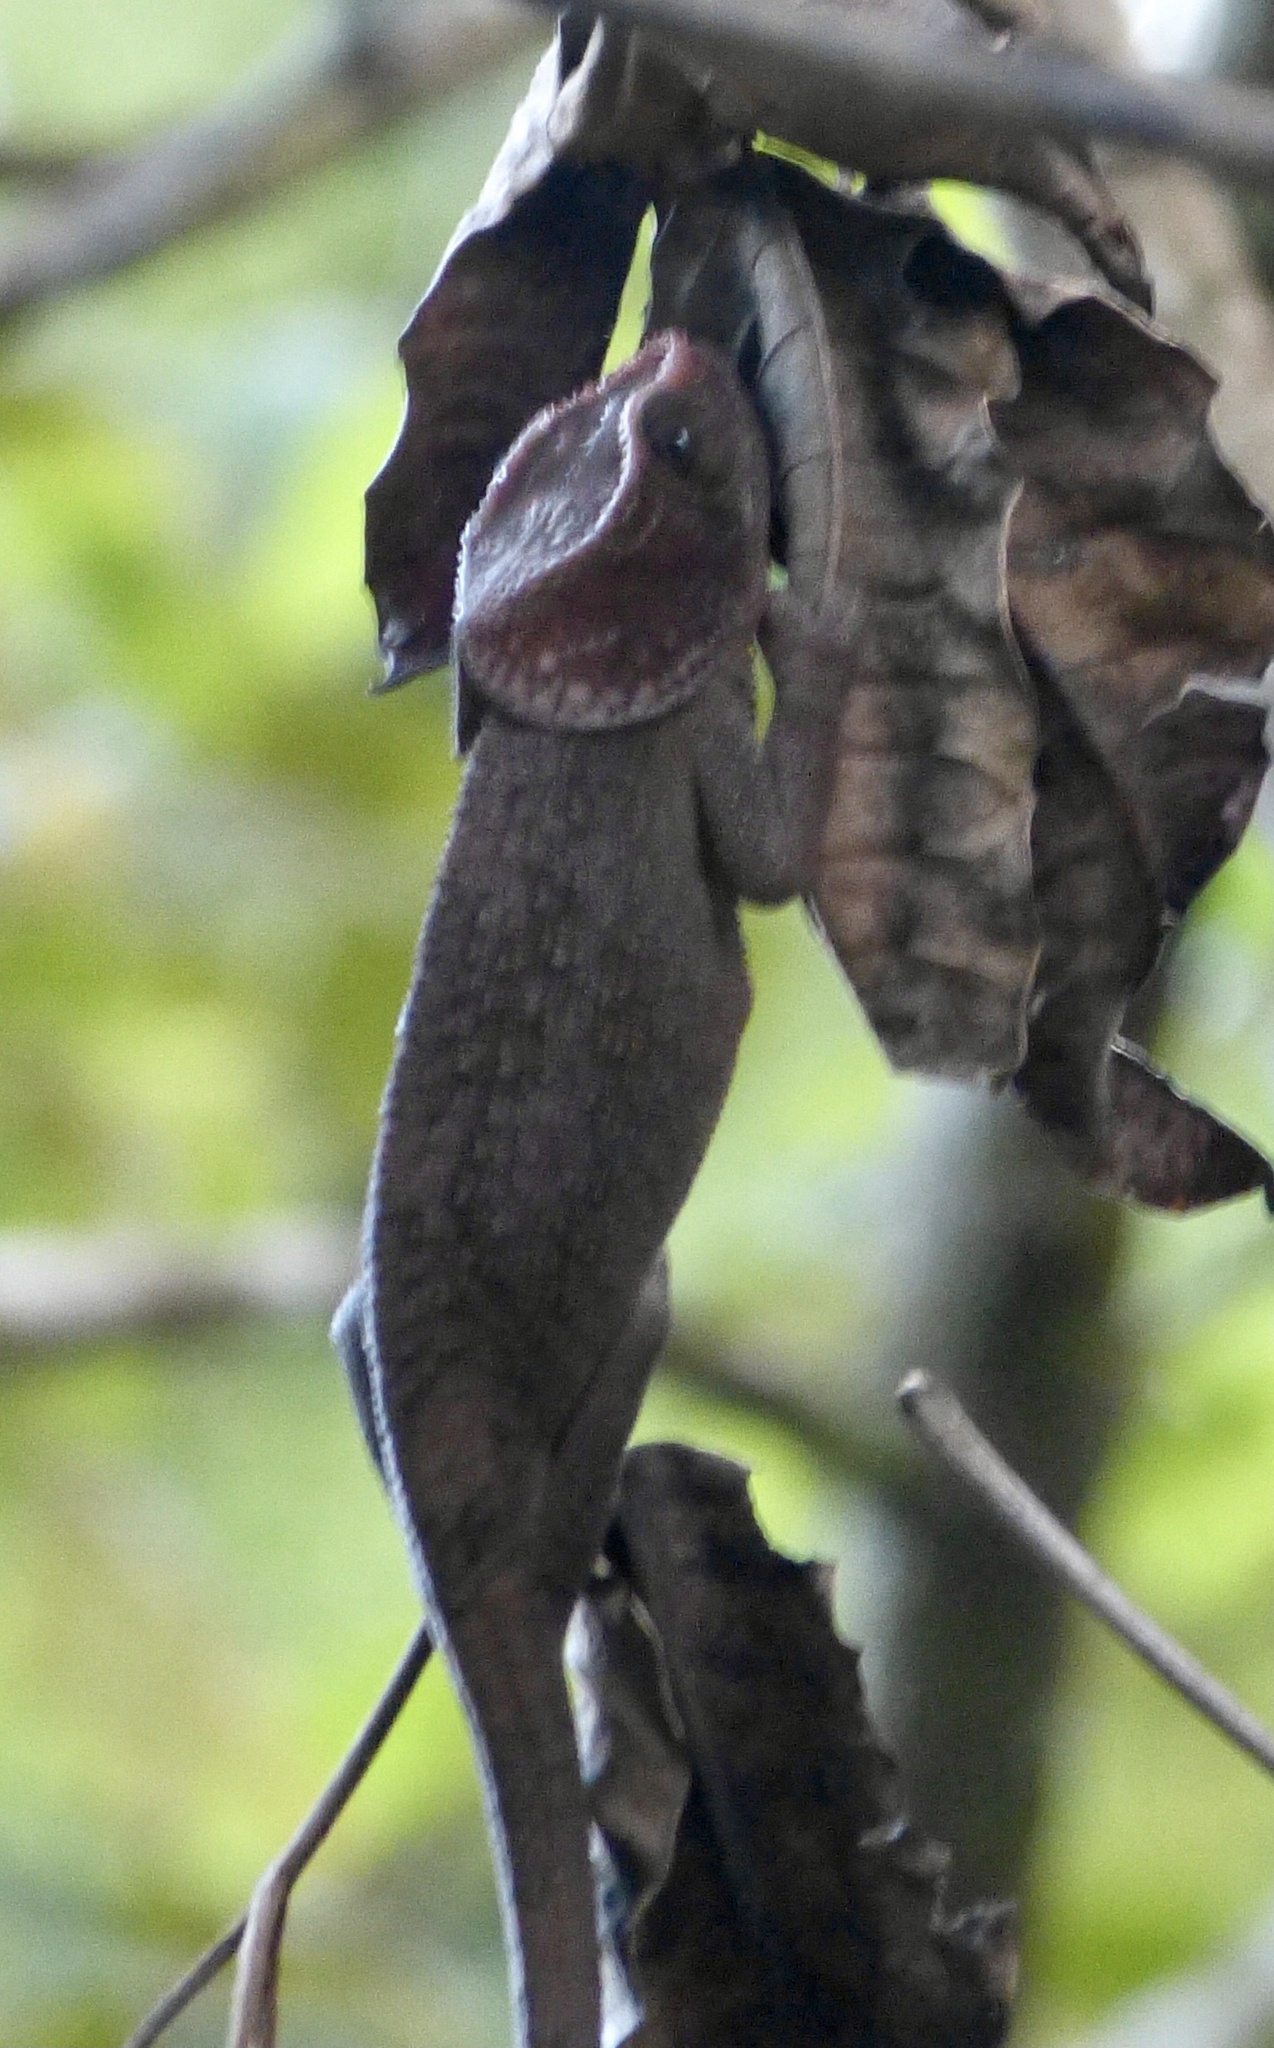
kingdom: Animalia
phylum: Chordata
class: Squamata
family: Chamaeleonidae
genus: Calumma
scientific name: Calumma brevicorne
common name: Short-horned chameleon
